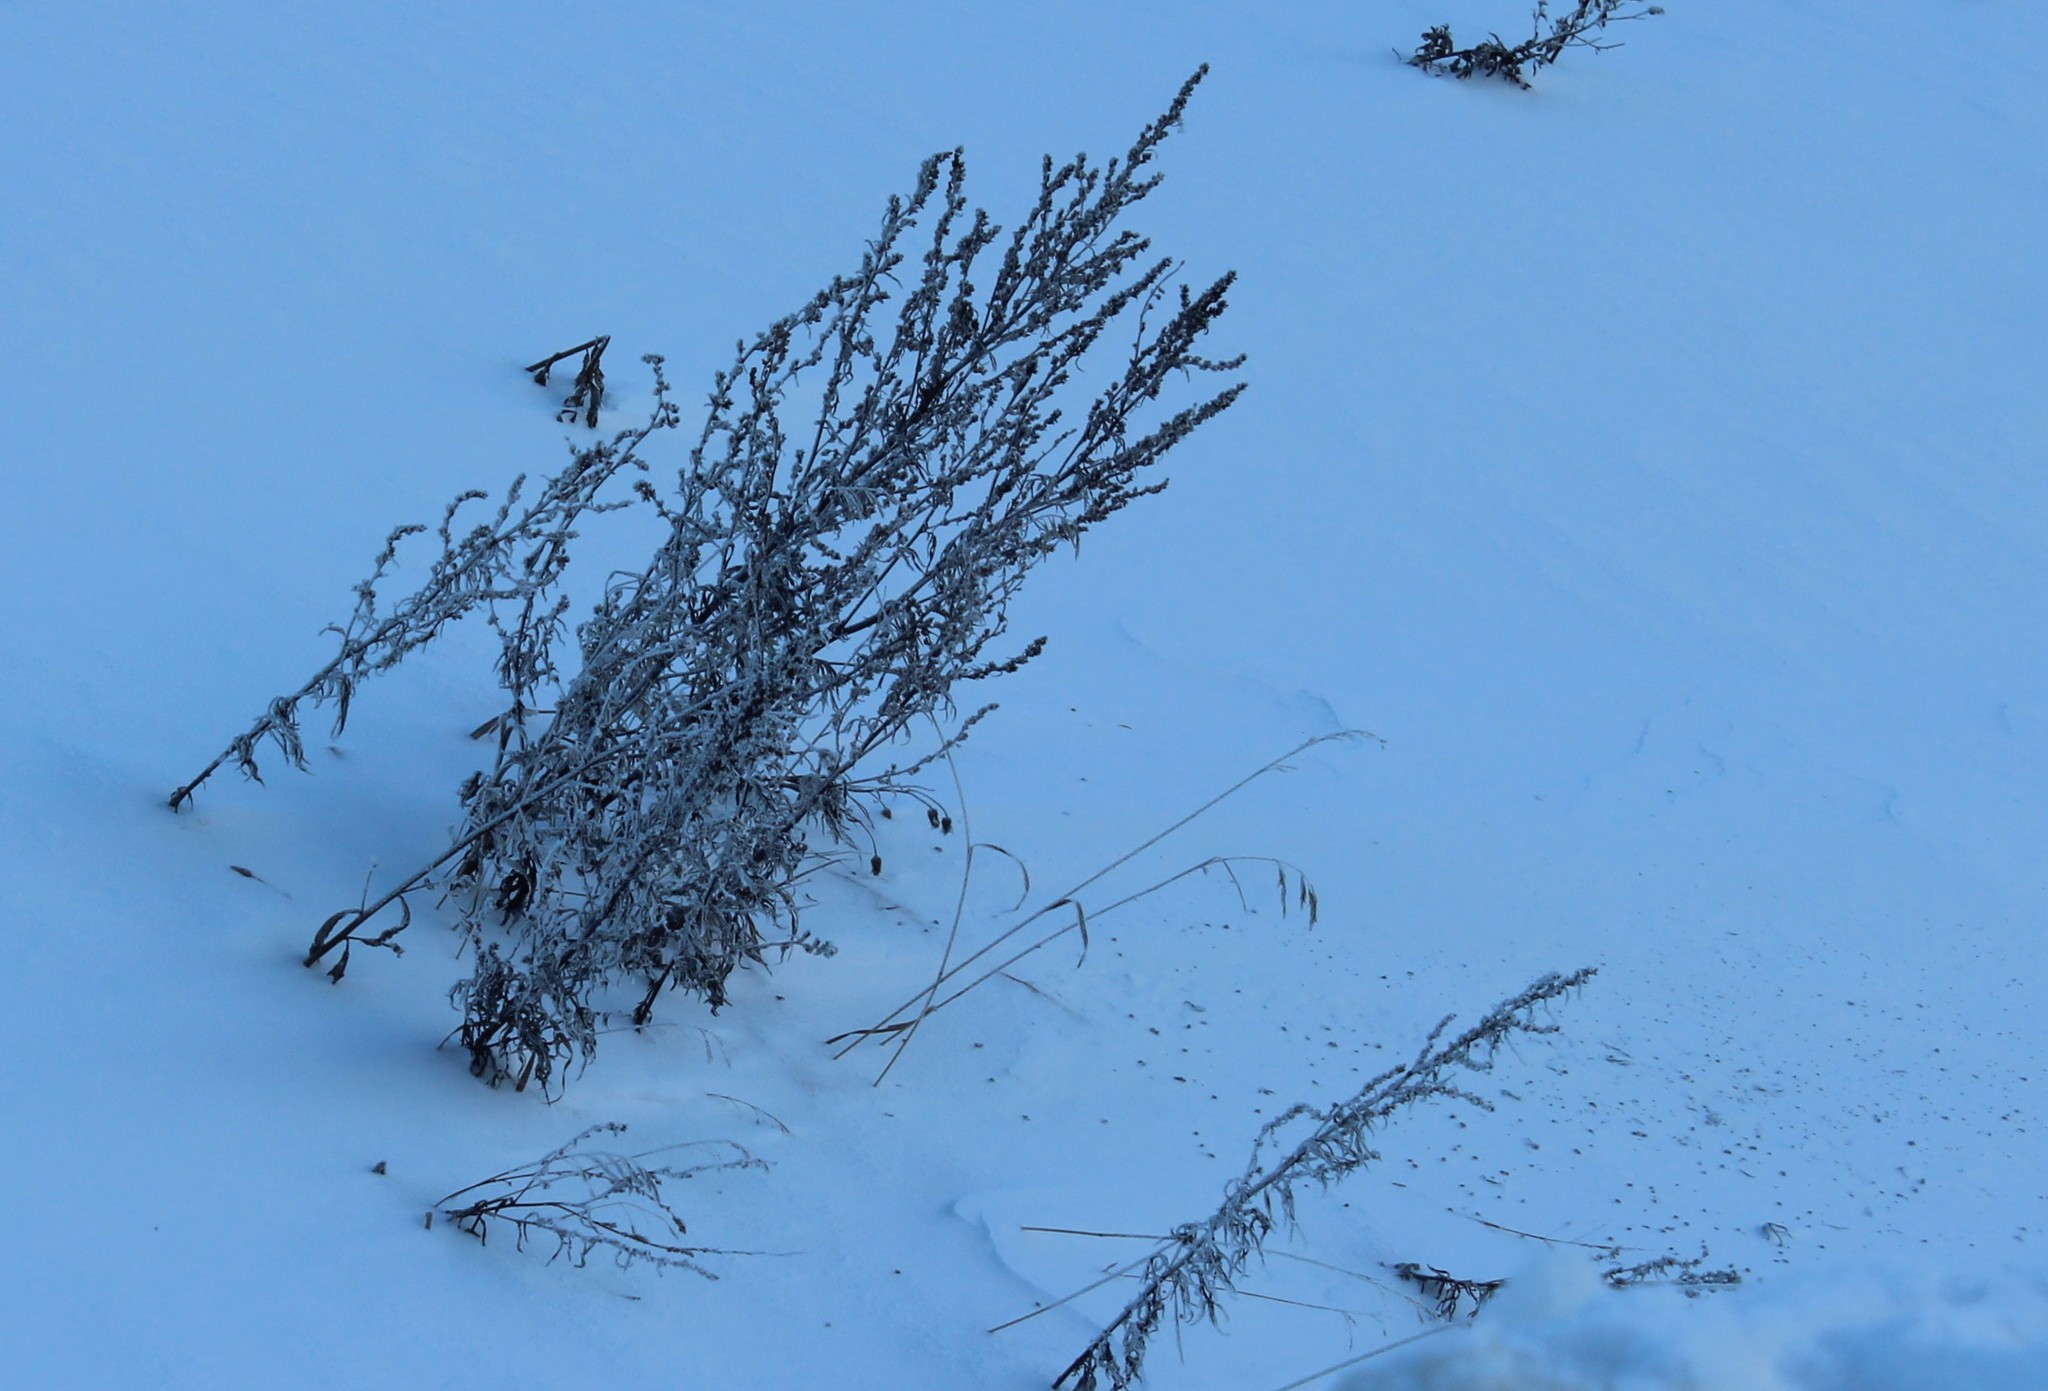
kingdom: Plantae
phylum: Tracheophyta
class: Magnoliopsida
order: Asterales
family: Asteraceae
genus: Artemisia
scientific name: Artemisia vulgaris
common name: Mugwort
